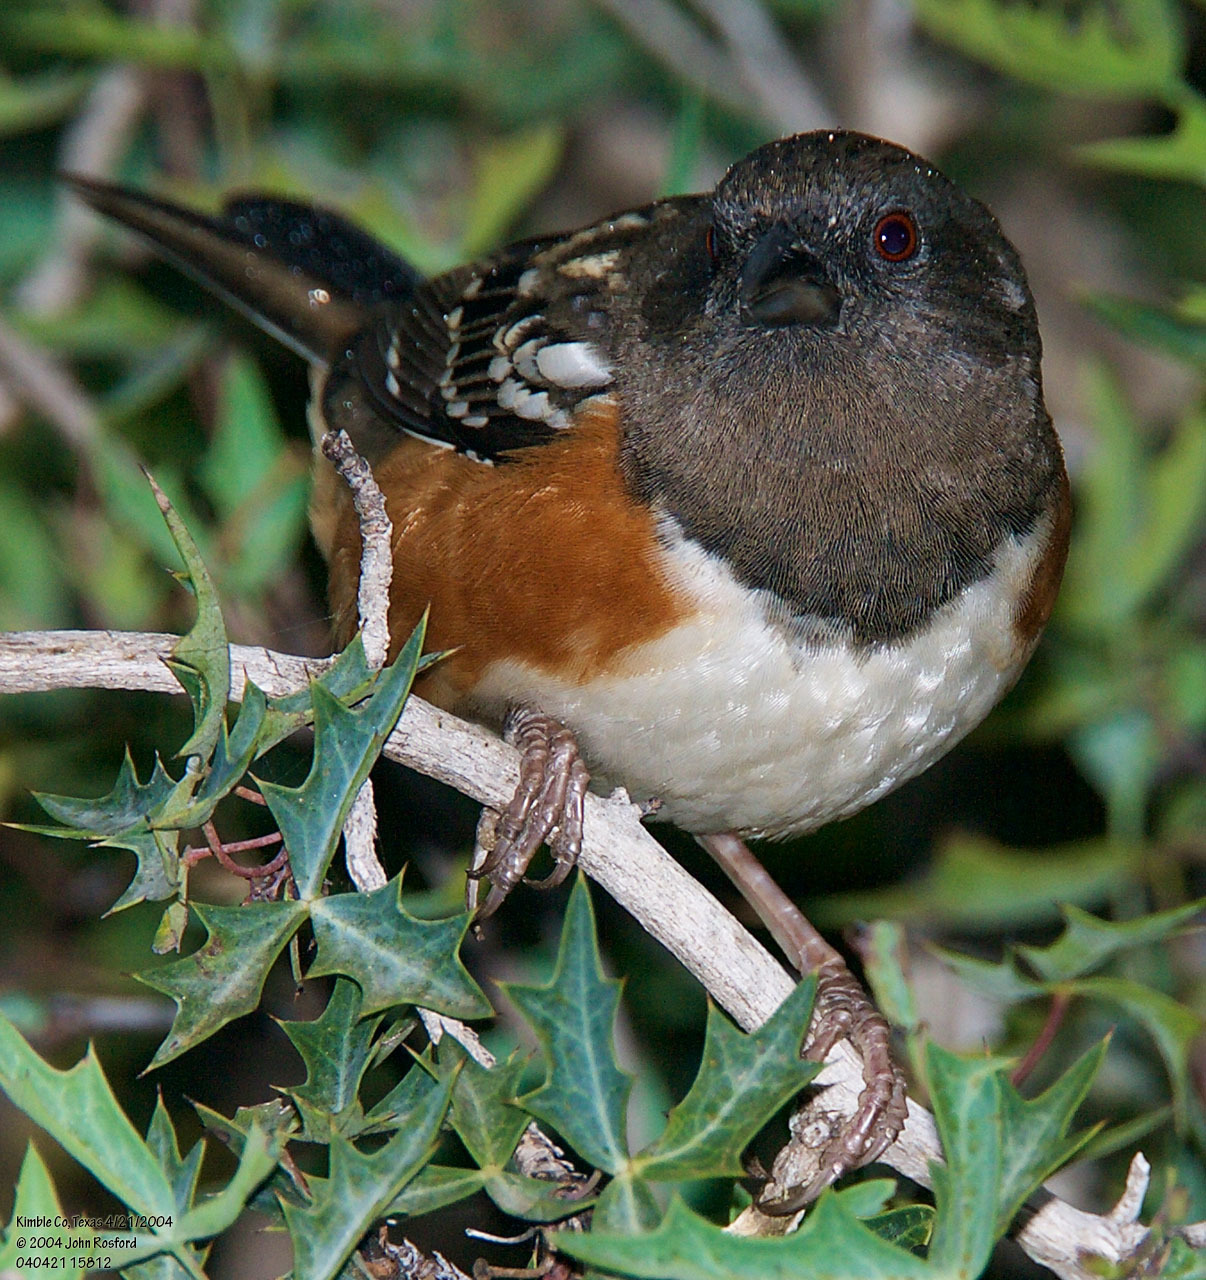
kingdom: Animalia
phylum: Chordata
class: Aves
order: Passeriformes
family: Passerellidae
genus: Pipilo
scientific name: Pipilo maculatus
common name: Spotted towhee
